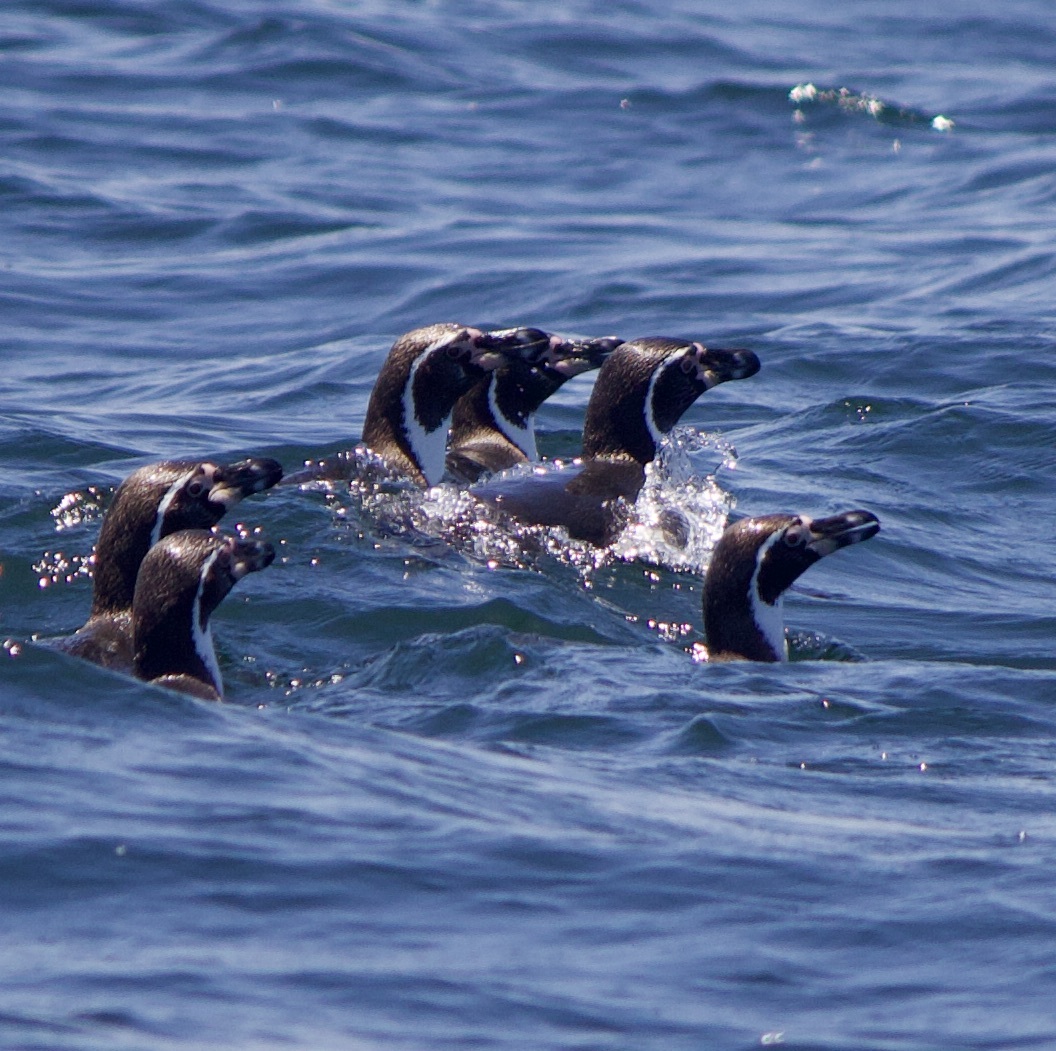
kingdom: Animalia
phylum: Chordata
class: Aves
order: Sphenisciformes
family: Spheniscidae
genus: Spheniscus
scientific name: Spheniscus humboldti
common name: Humboldt penguin
